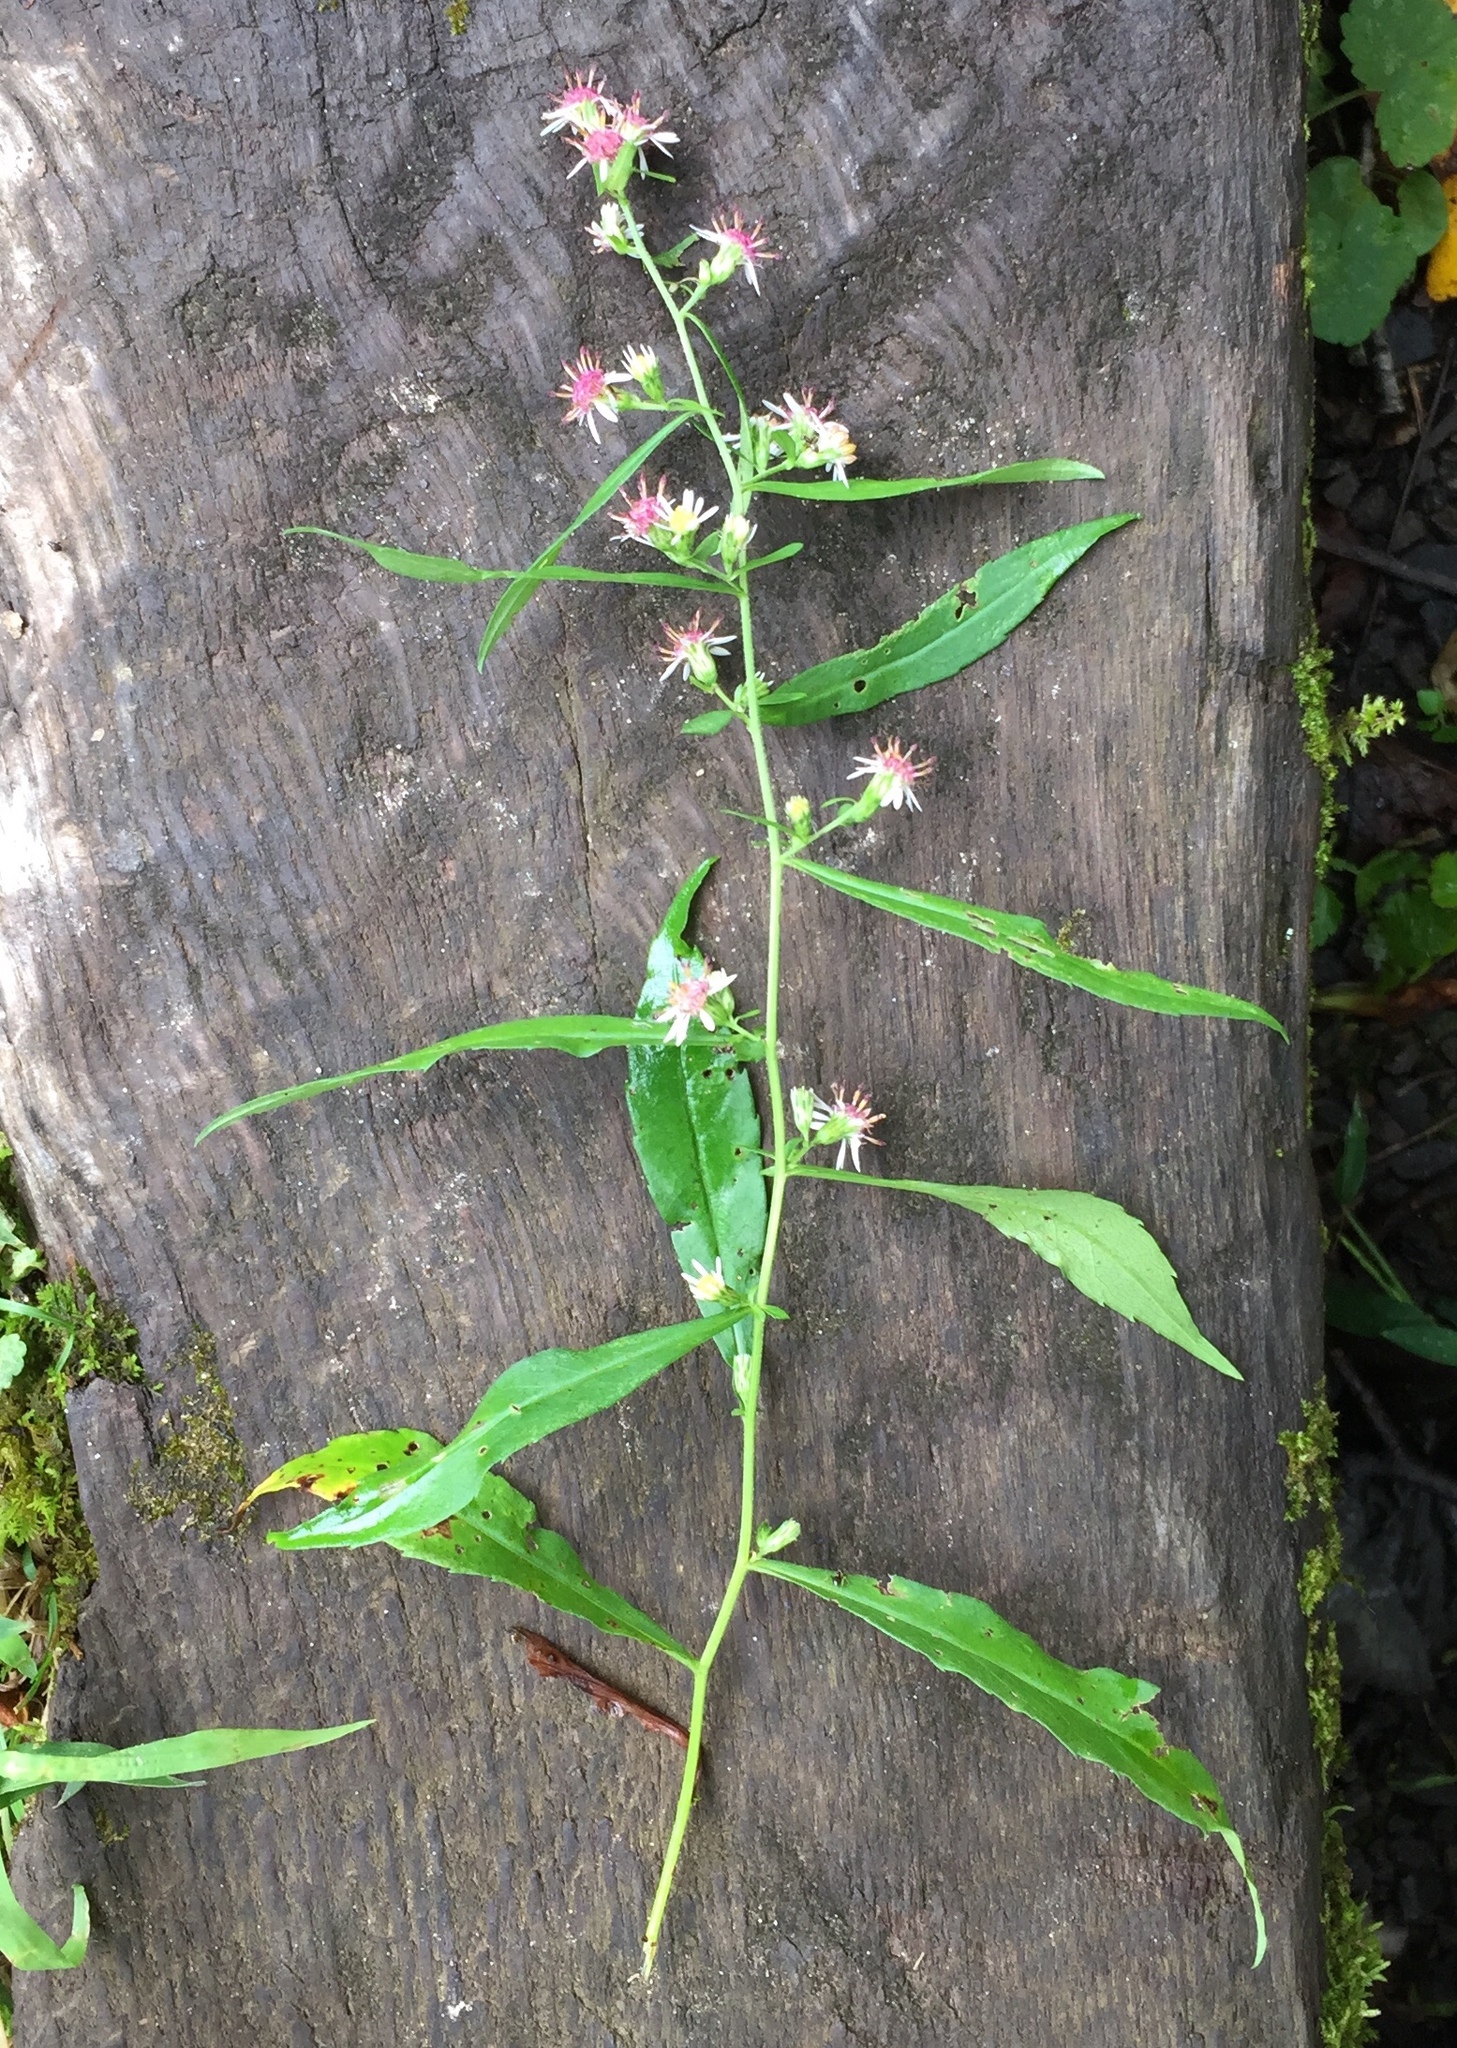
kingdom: Plantae
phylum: Tracheophyta
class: Magnoliopsida
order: Asterales
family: Asteraceae
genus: Symphyotrichum
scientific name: Symphyotrichum lateriflorum
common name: Calico aster
